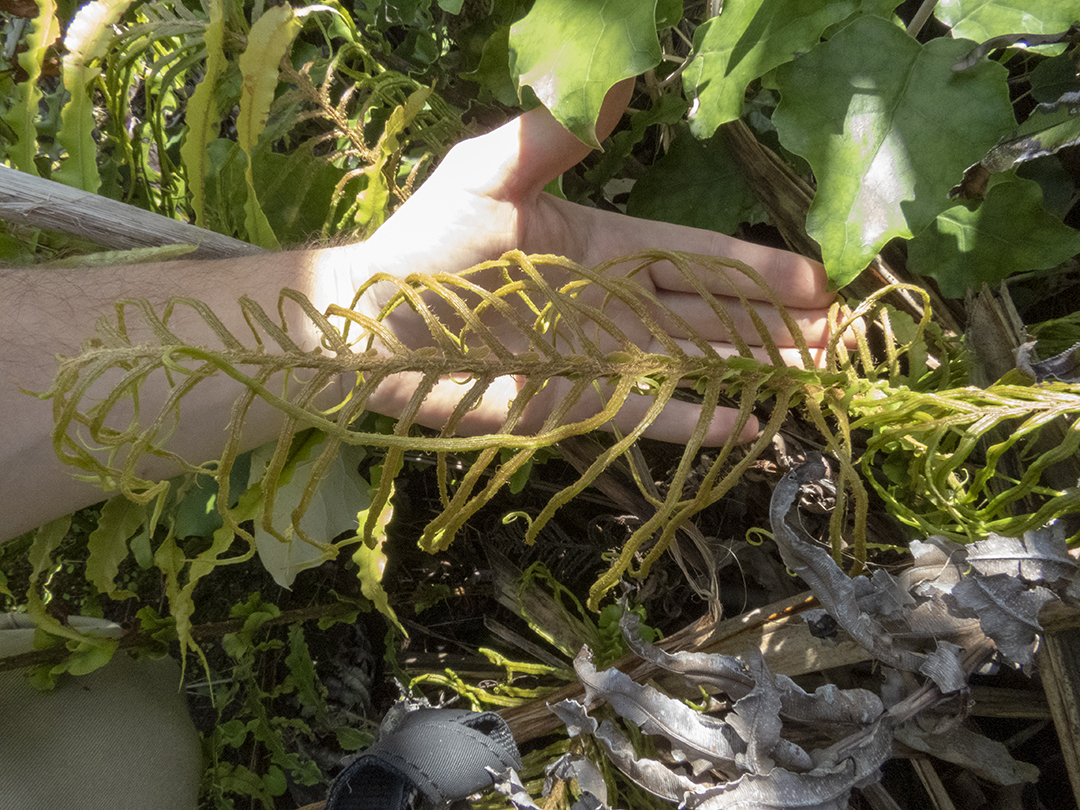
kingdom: Plantae
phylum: Tracheophyta
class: Polypodiopsida
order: Polypodiales
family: Blechnaceae
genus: Parablechnum
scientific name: Parablechnum novae-zelandiae
